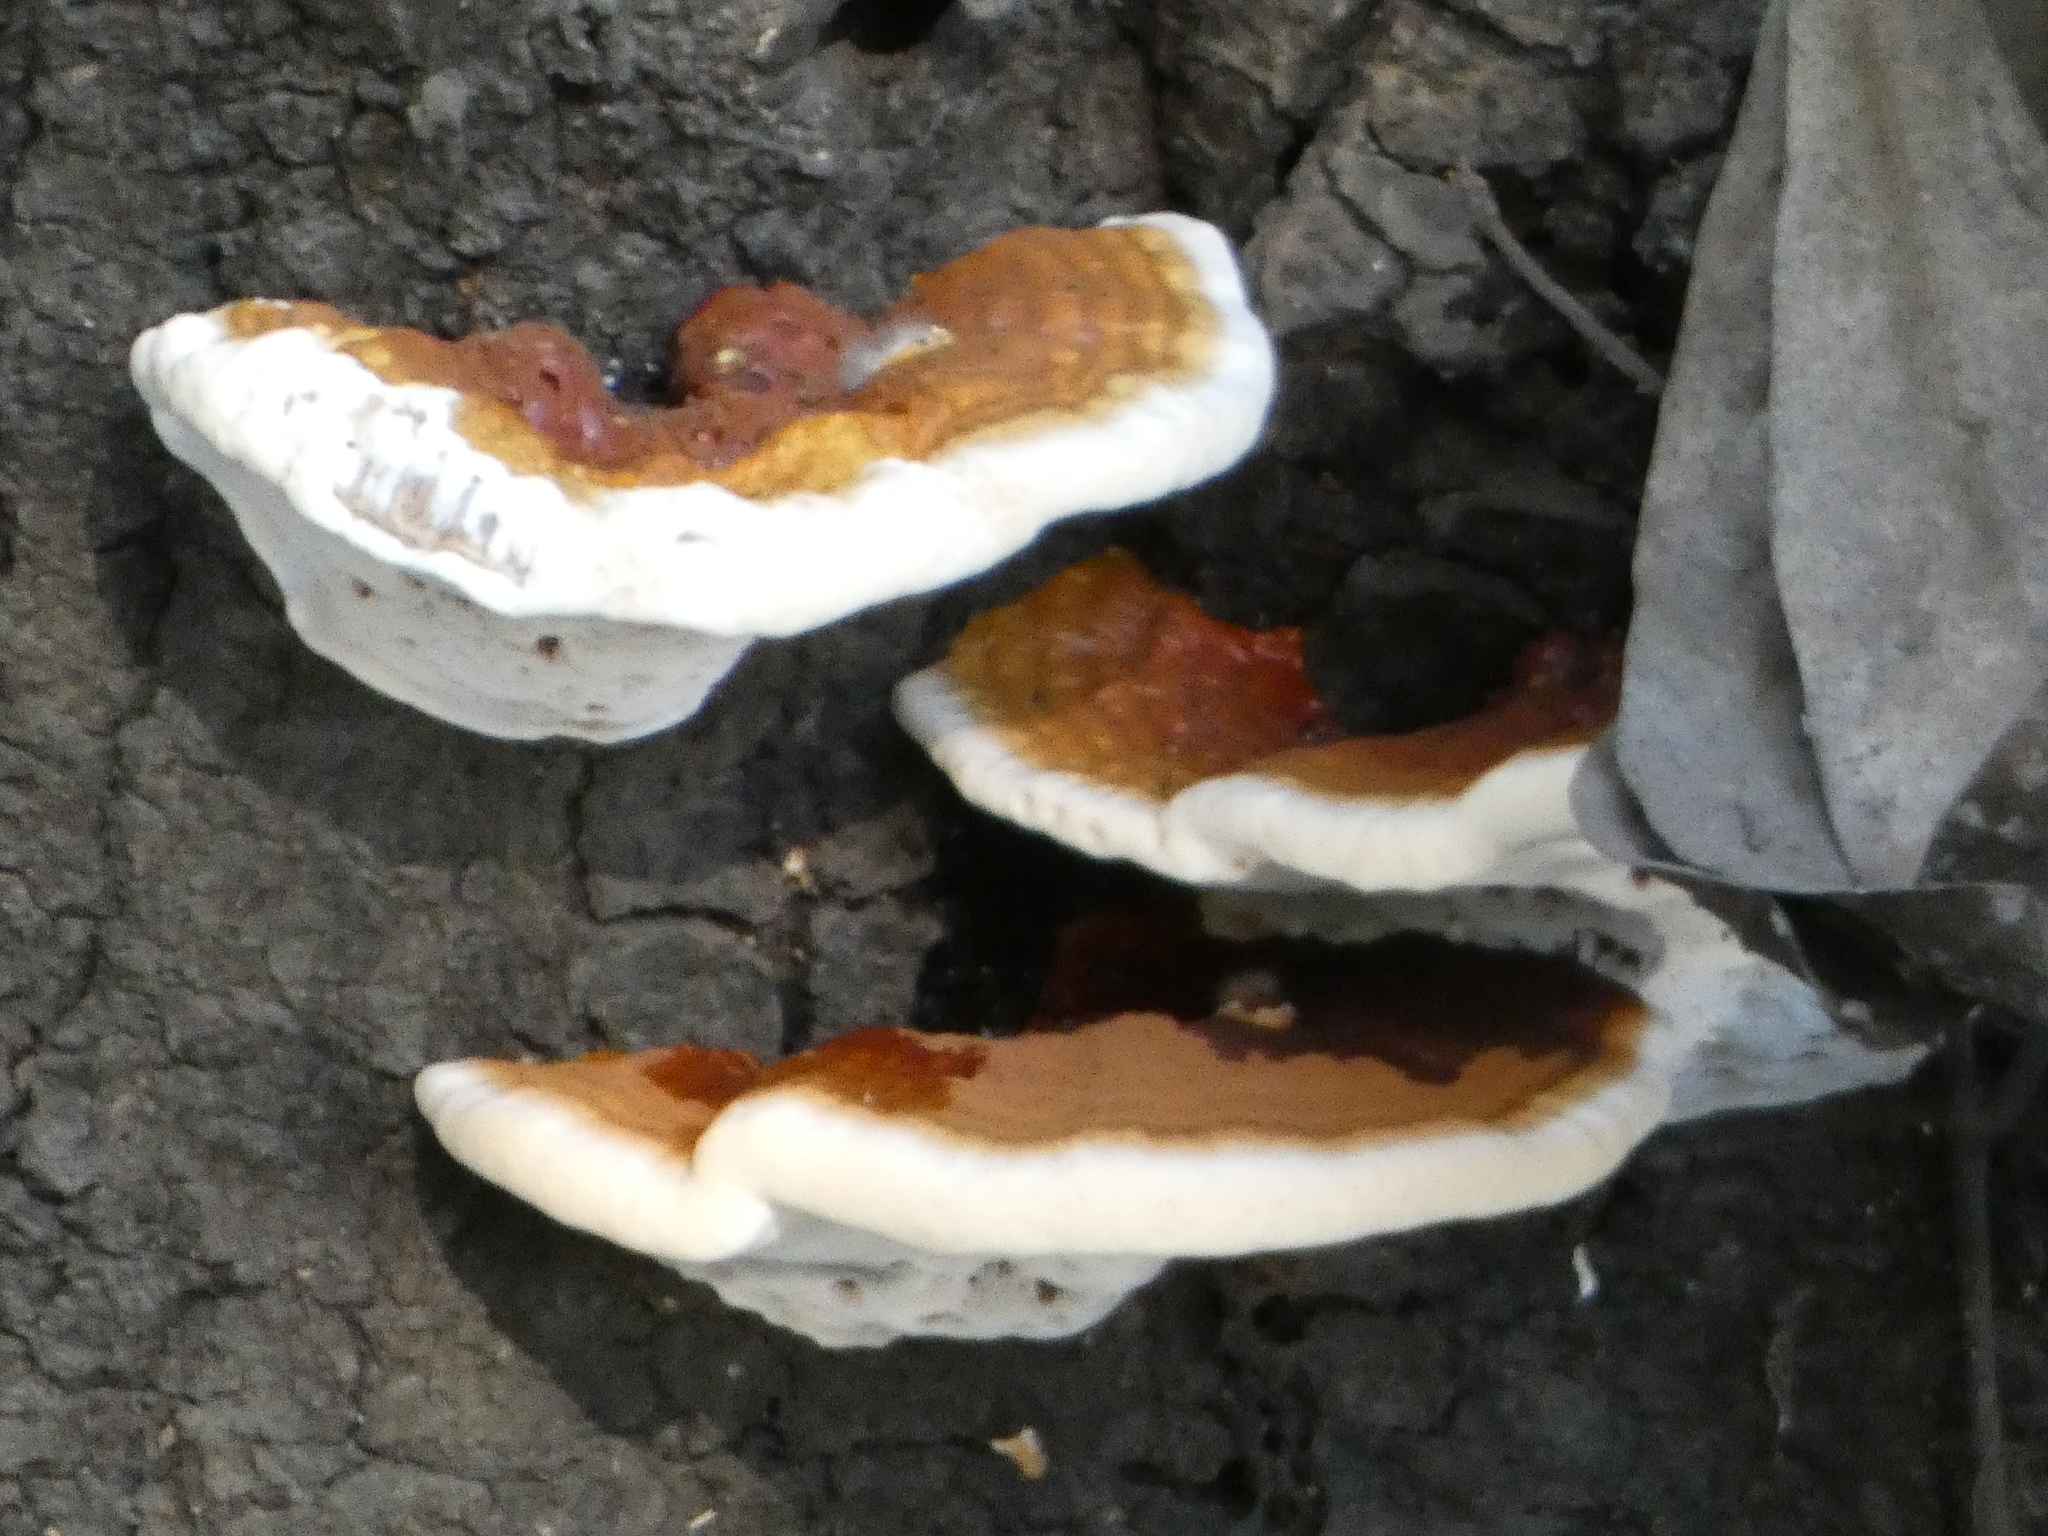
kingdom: Fungi
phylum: Basidiomycota
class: Agaricomycetes
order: Polyporales
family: Polyporaceae
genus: Ganoderma
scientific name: Ganoderma resinaceum
